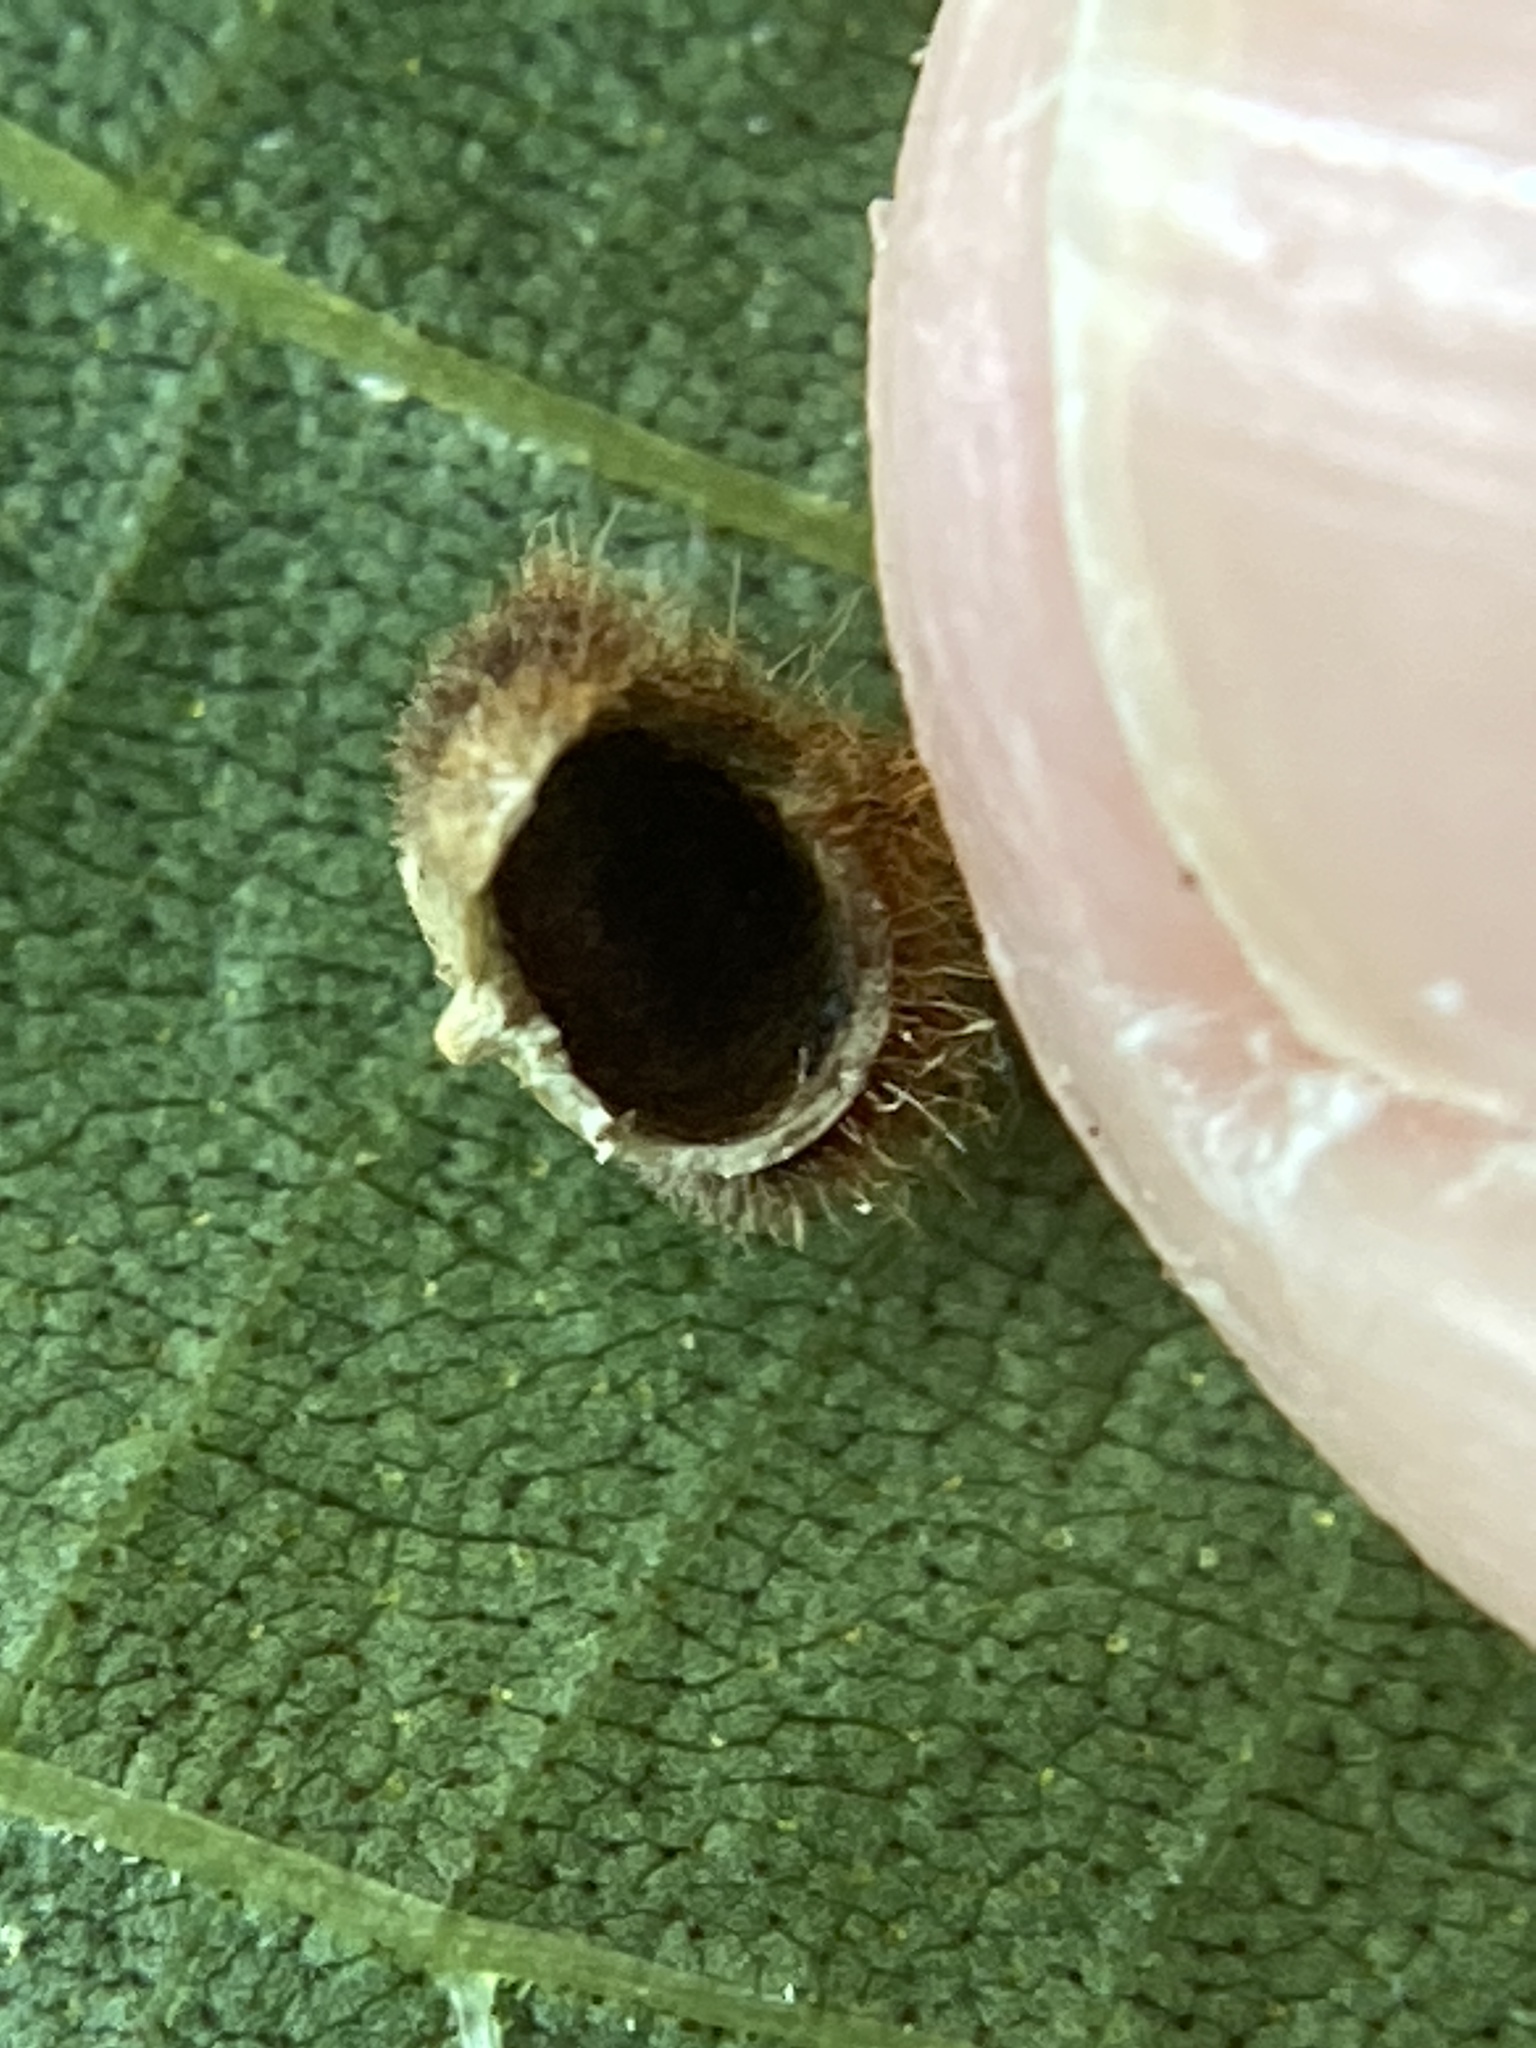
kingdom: Animalia
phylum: Arthropoda
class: Insecta
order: Diptera
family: Cecidomyiidae
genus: Caryomyia
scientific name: Caryomyia purpurea
